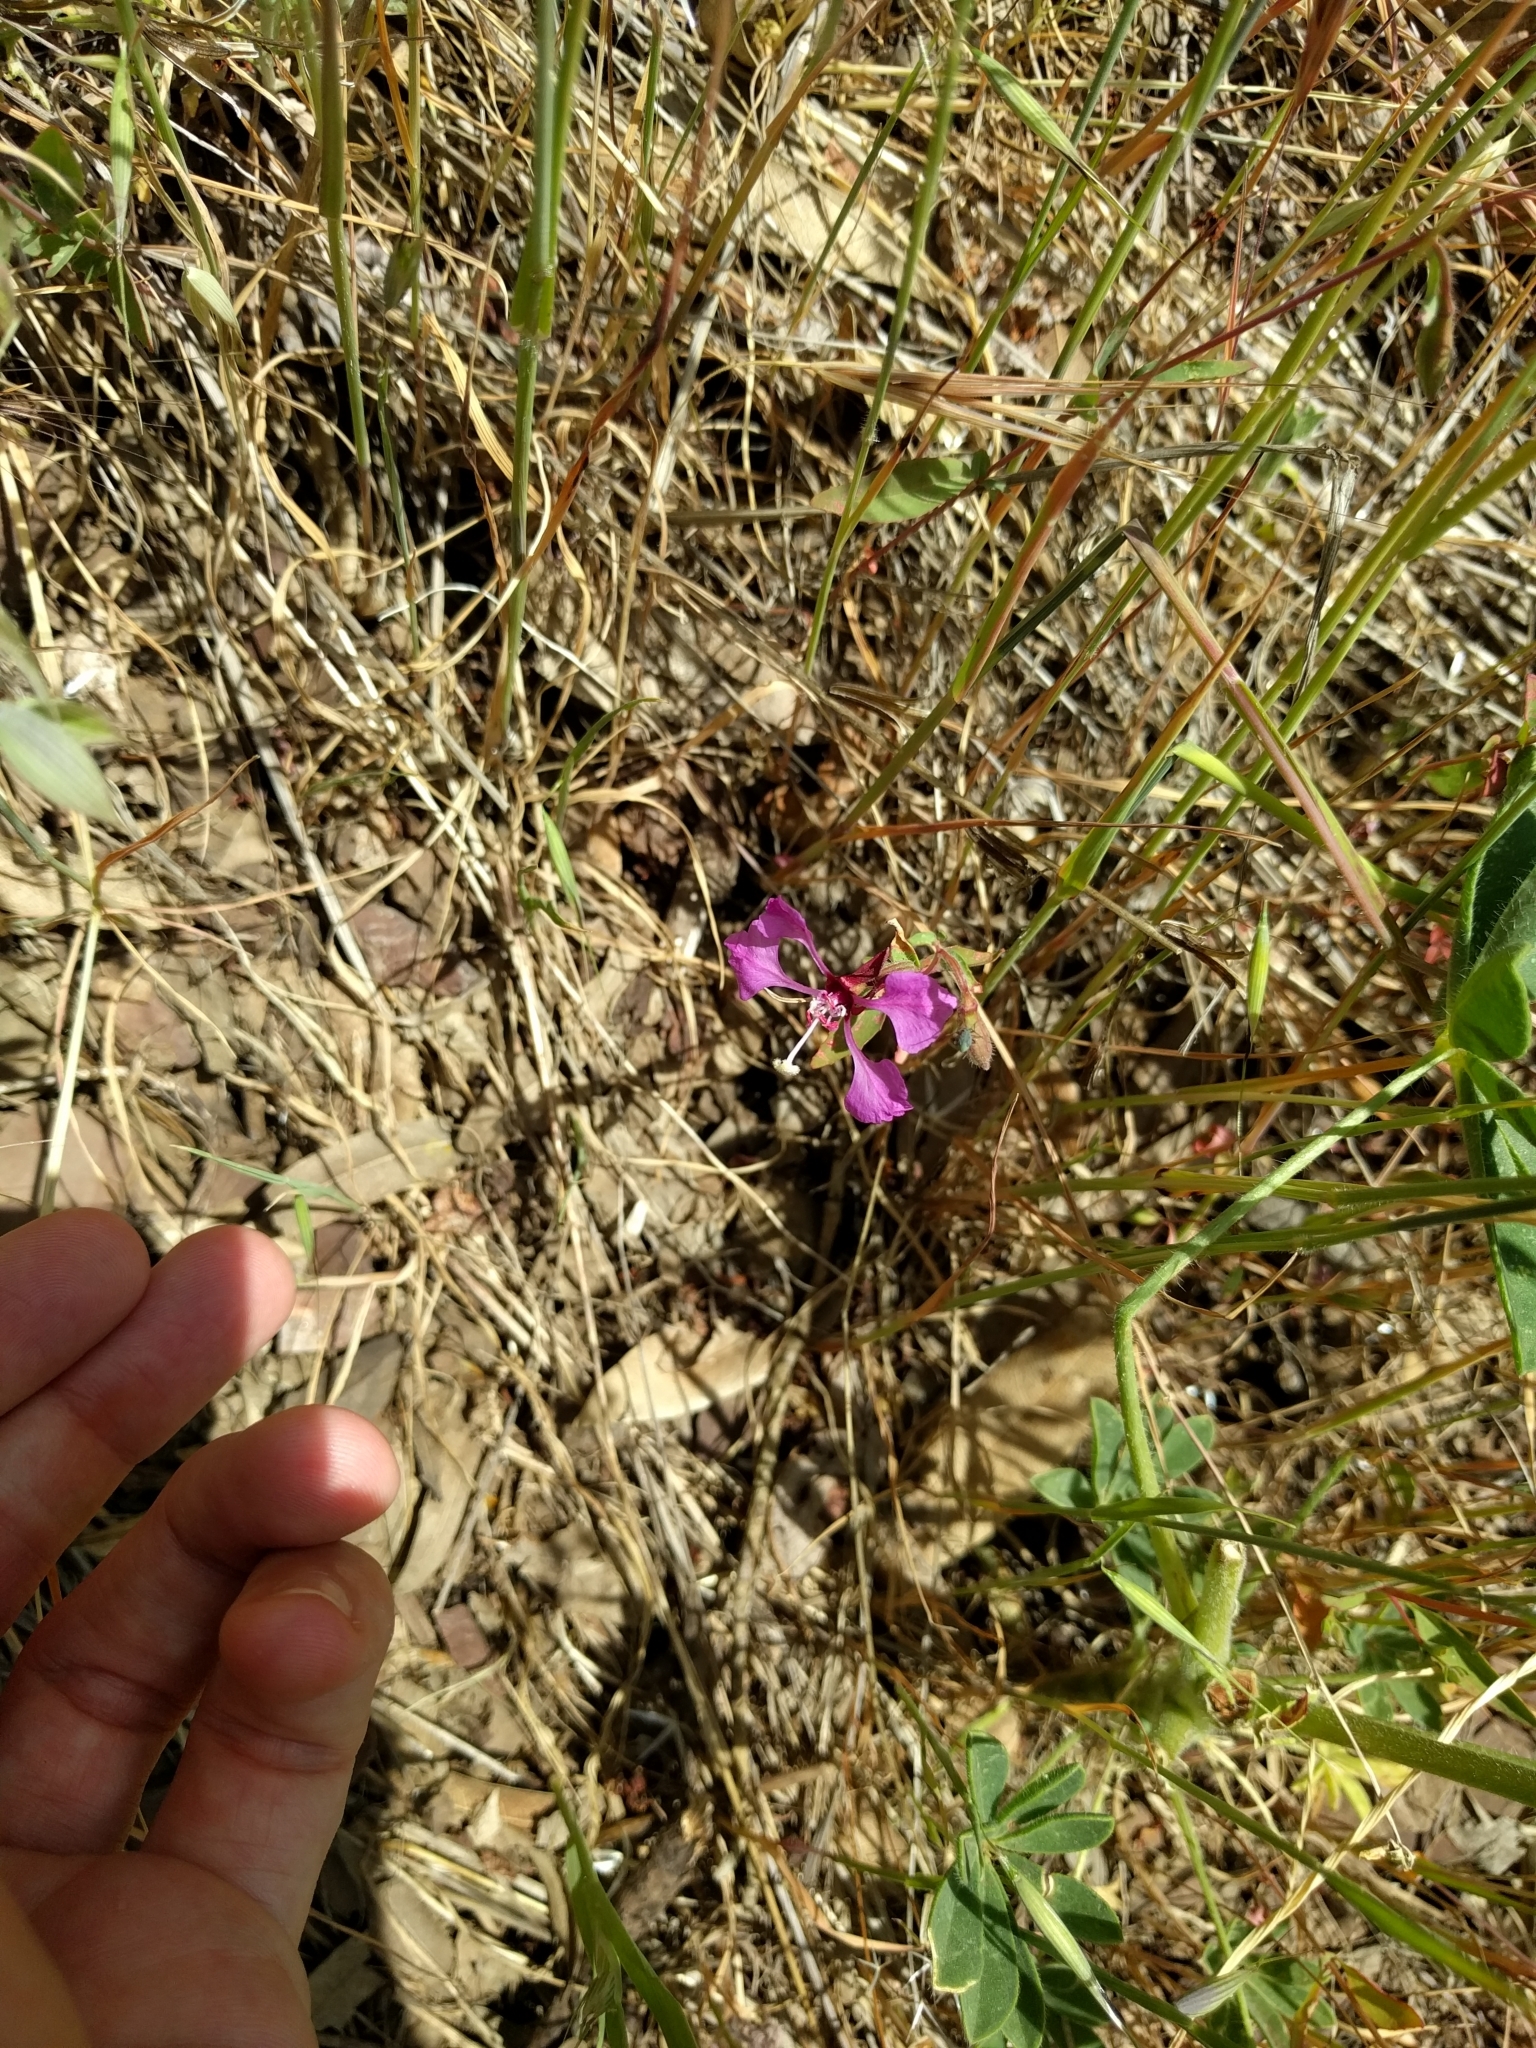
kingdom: Plantae
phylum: Tracheophyta
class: Magnoliopsida
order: Myrtales
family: Onagraceae
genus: Clarkia
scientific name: Clarkia unguiculata
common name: Clarkia
